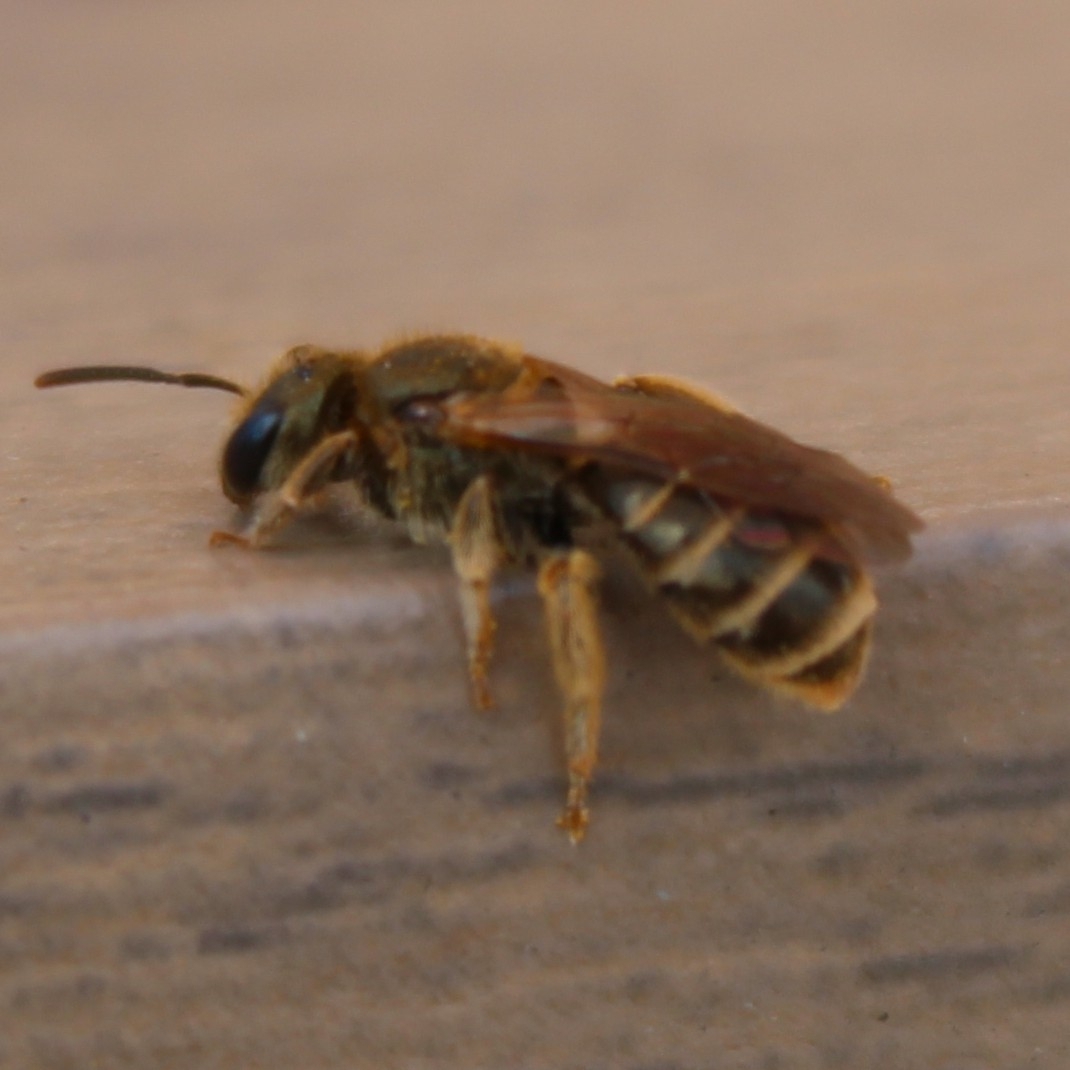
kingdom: Animalia
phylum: Arthropoda
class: Insecta
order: Hymenoptera
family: Halictidae
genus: Halictus
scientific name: Halictus confusus
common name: Southern bronze furrow bee
